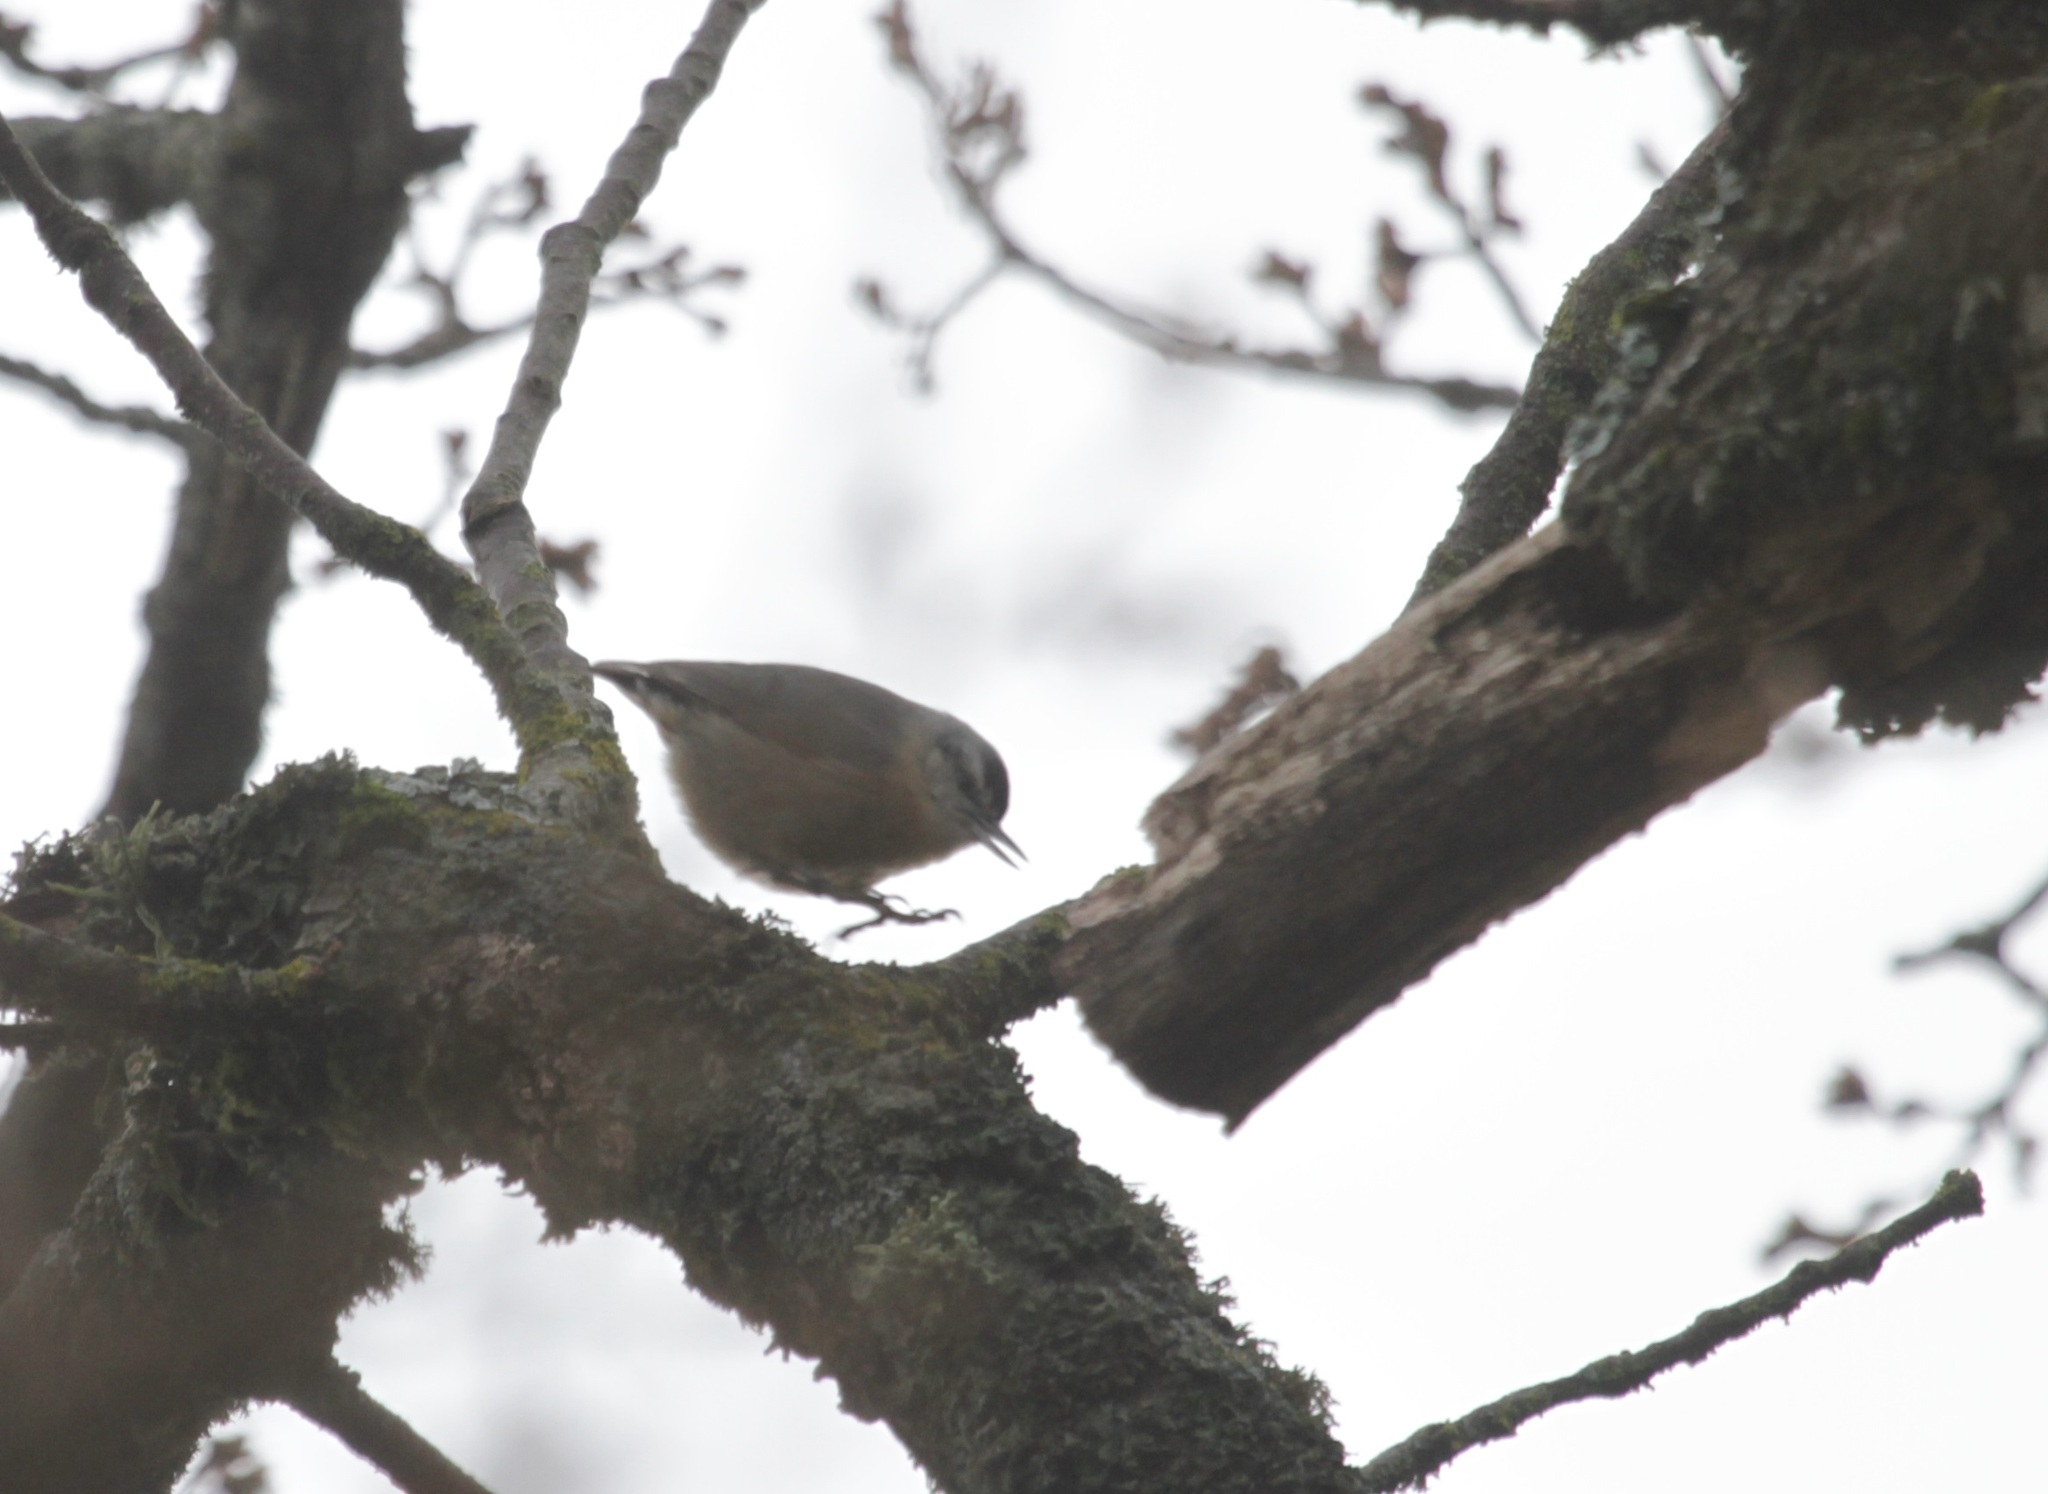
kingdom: Animalia
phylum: Chordata
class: Aves
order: Passeriformes
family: Sittidae
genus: Sitta
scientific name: Sitta ledanti
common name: Algerian nuthatch
